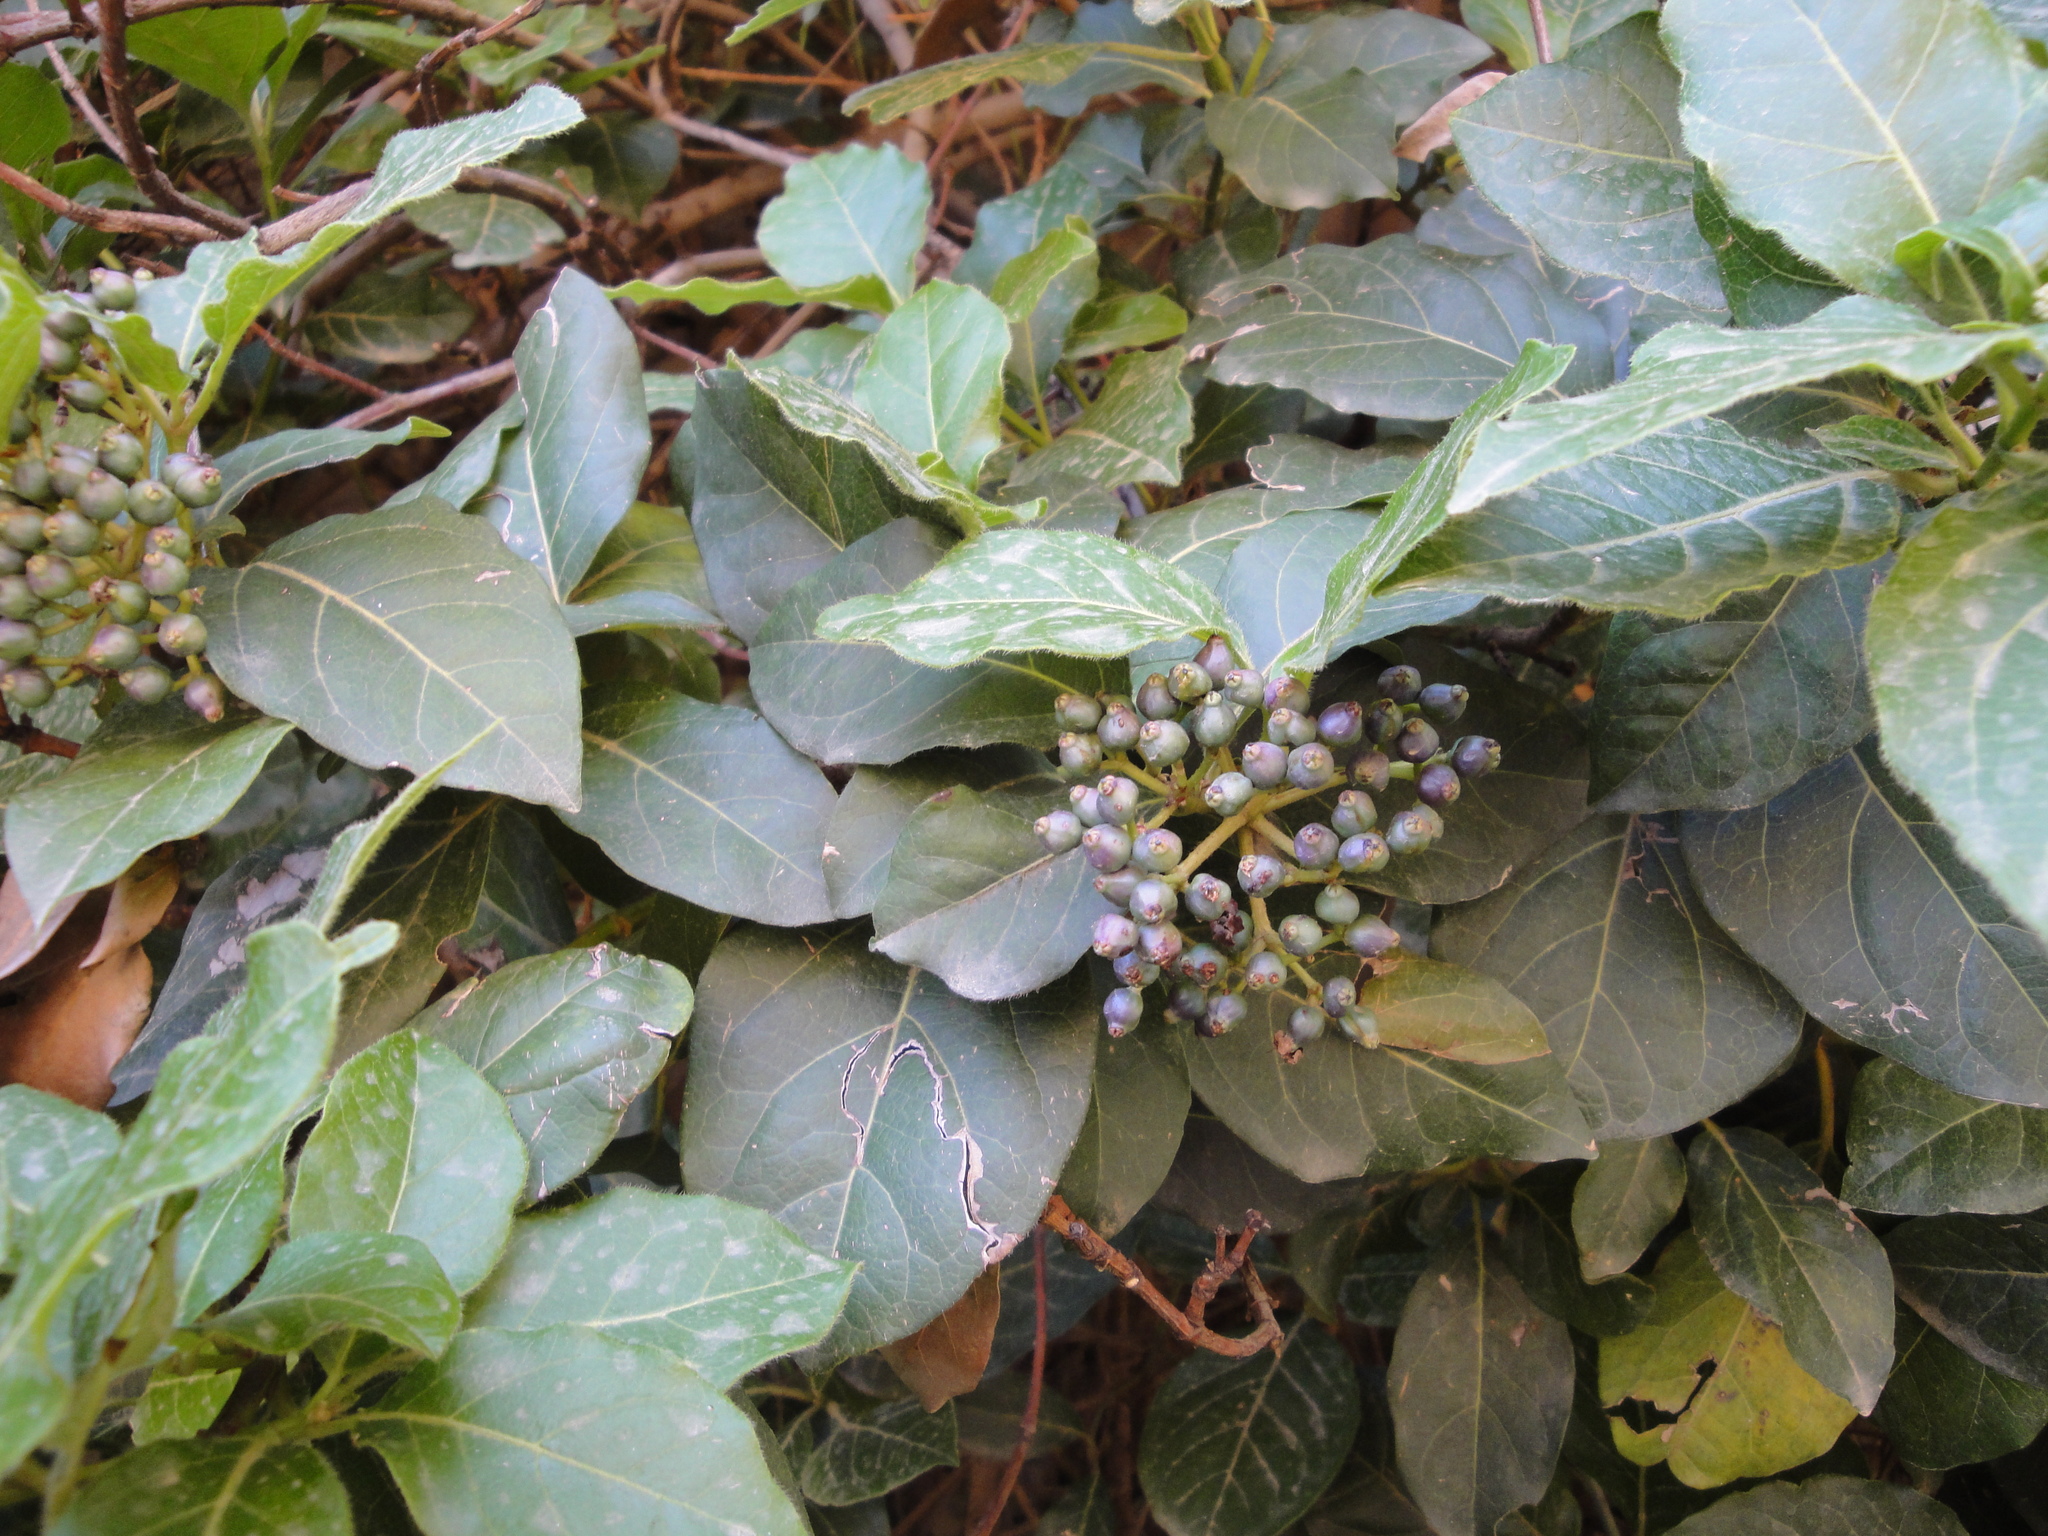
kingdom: Plantae
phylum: Tracheophyta
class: Magnoliopsida
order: Dipsacales
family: Viburnaceae
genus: Viburnum
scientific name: Viburnum tinus
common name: Laurustinus
